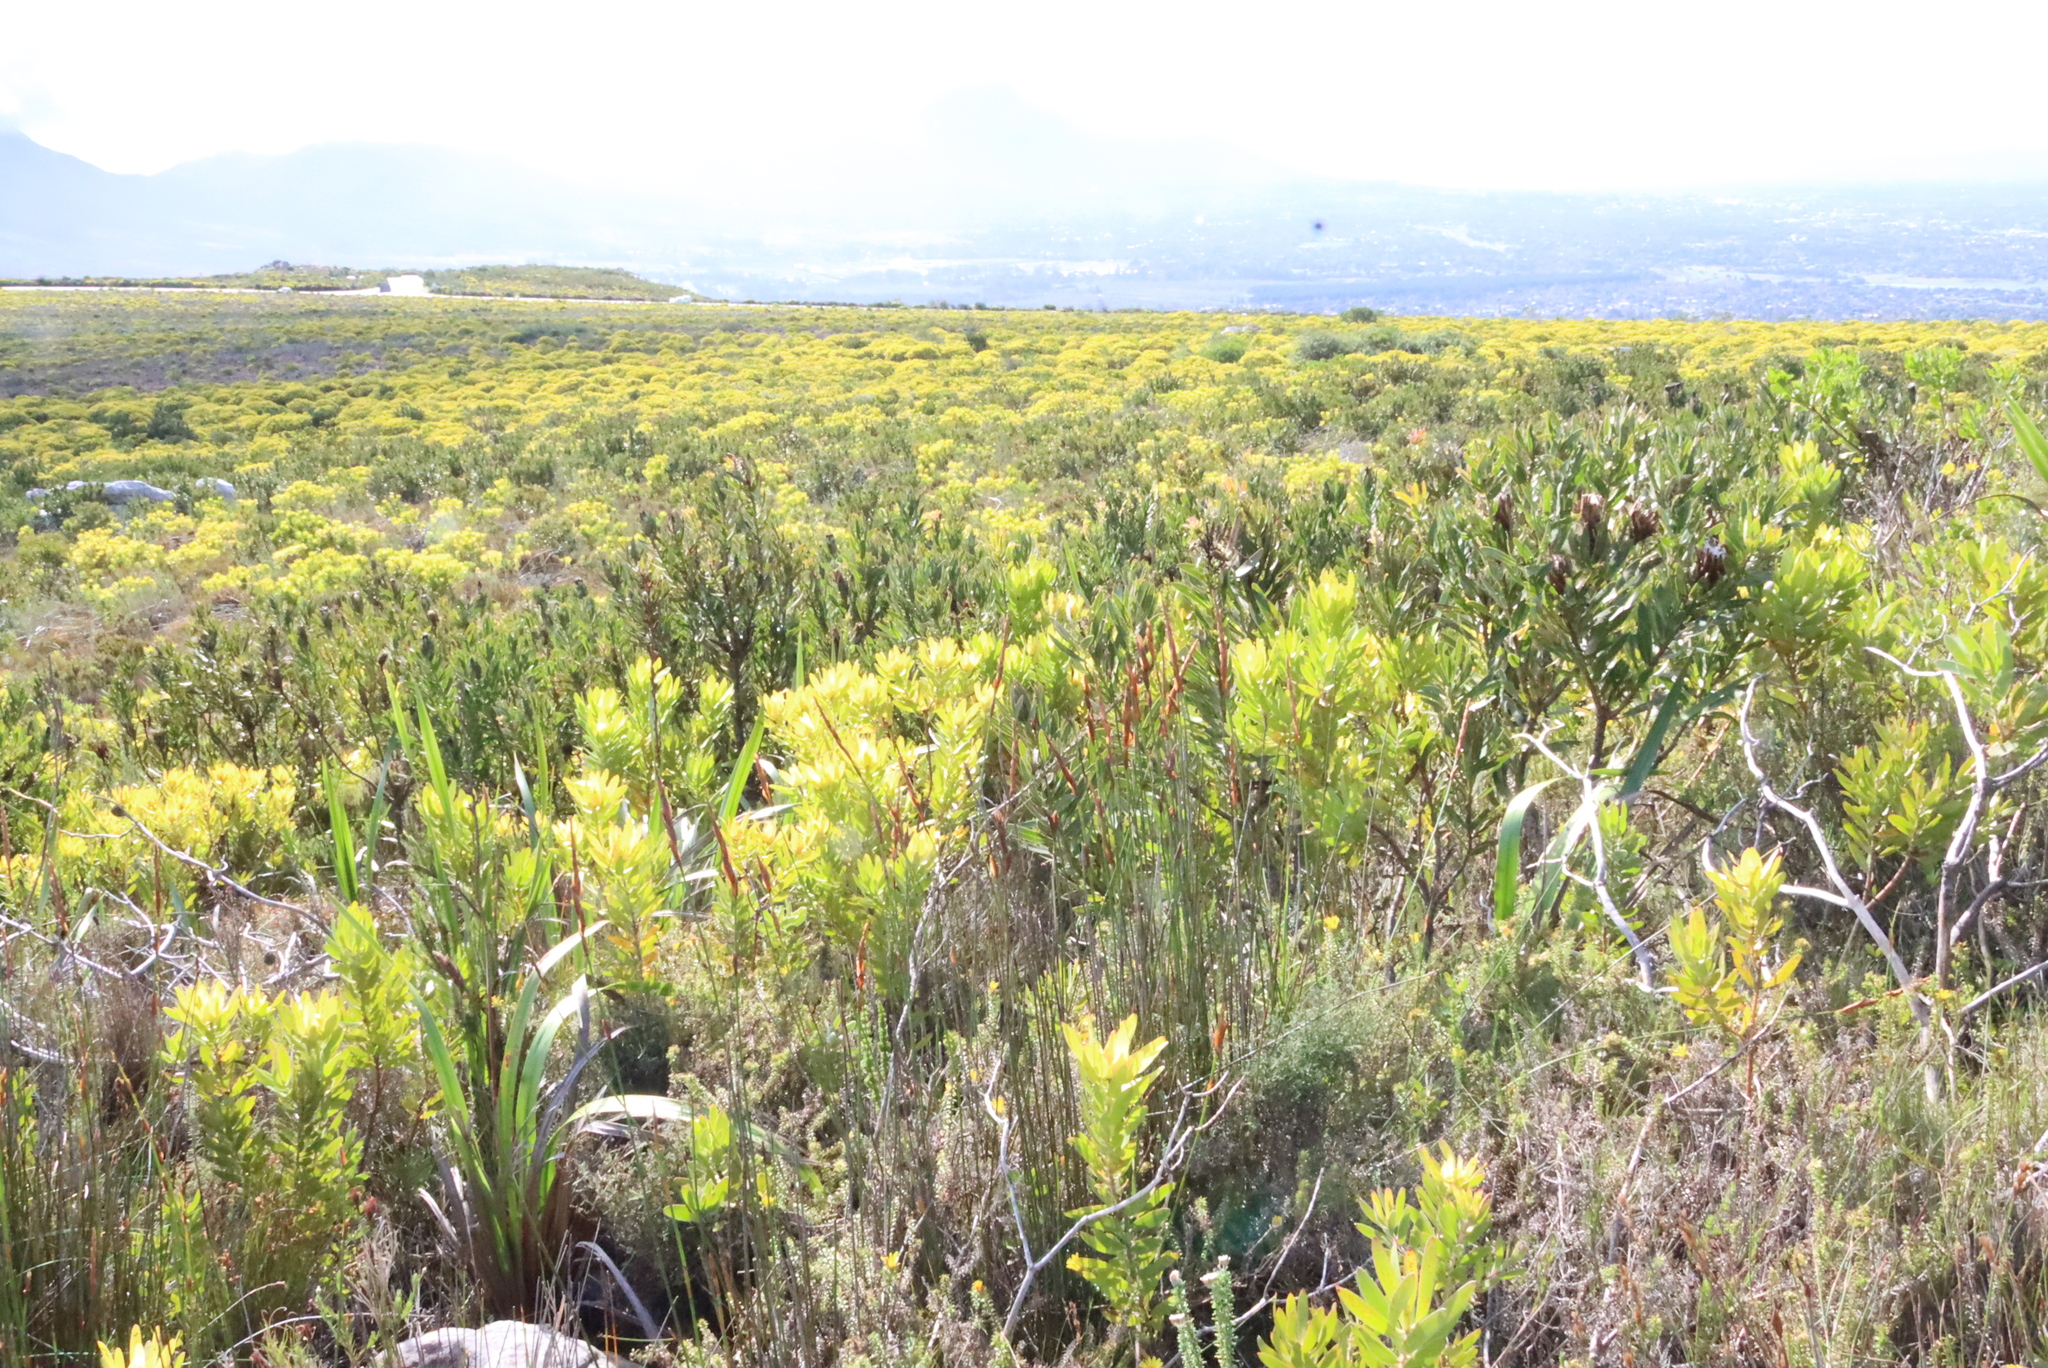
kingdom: Plantae
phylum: Tracheophyta
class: Magnoliopsida
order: Proteales
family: Proteaceae
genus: Protea
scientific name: Protea lepidocarpodendron
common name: Black-bearded protea
